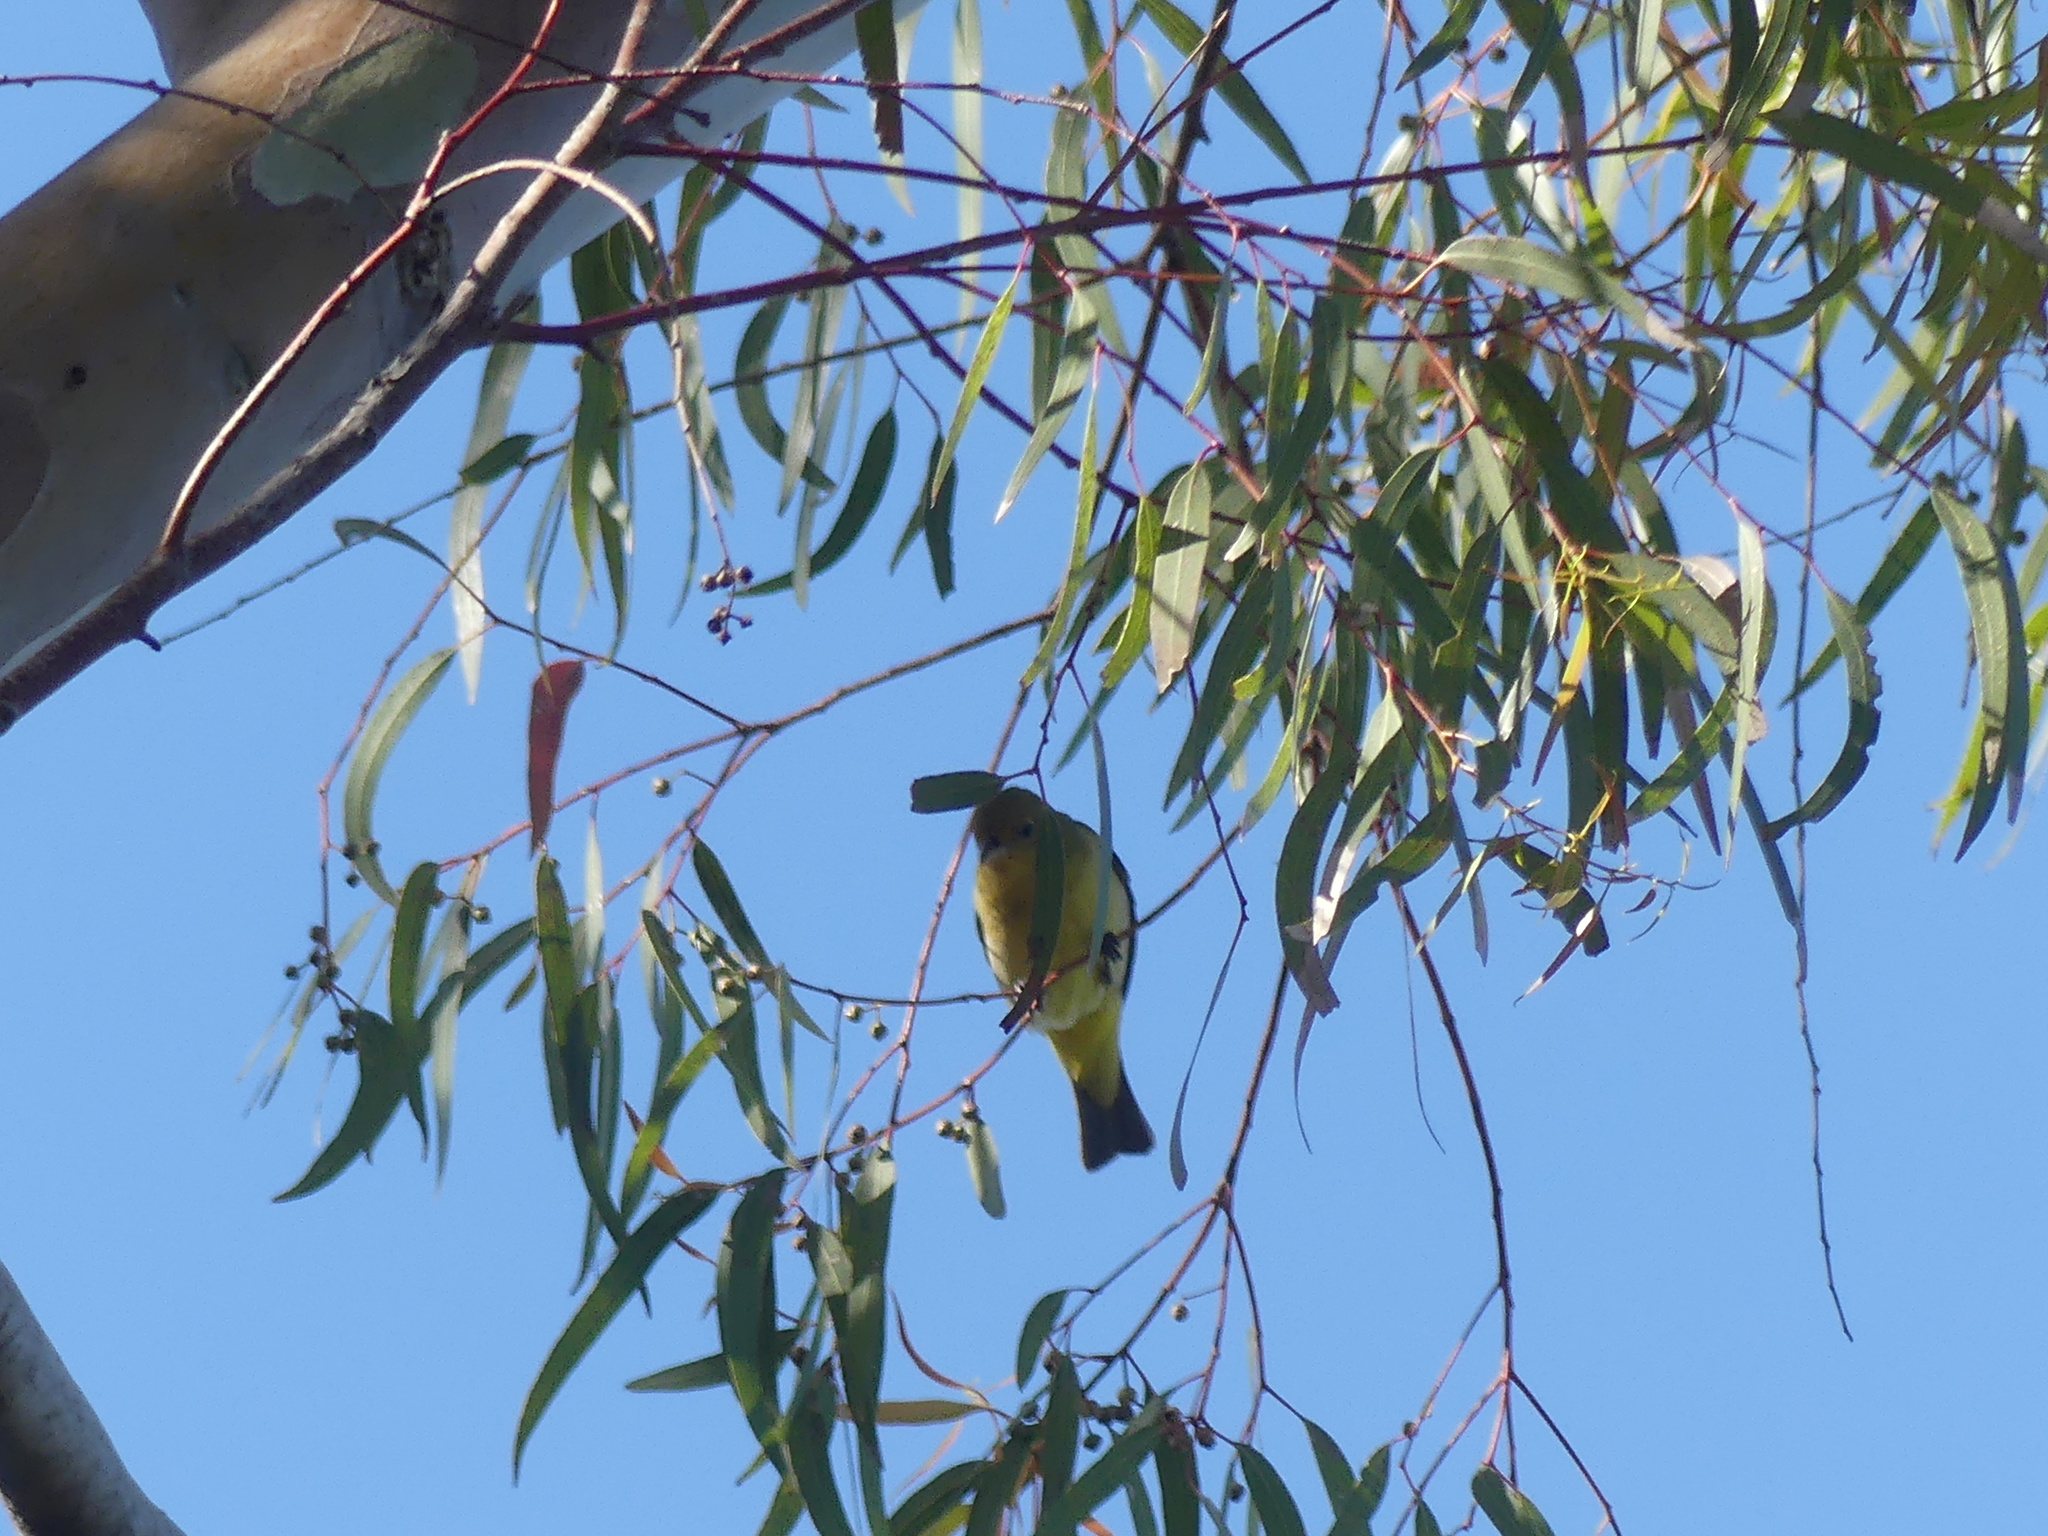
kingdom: Animalia
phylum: Chordata
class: Aves
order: Passeriformes
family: Cardinalidae
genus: Piranga
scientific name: Piranga ludoviciana
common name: Western tanager
